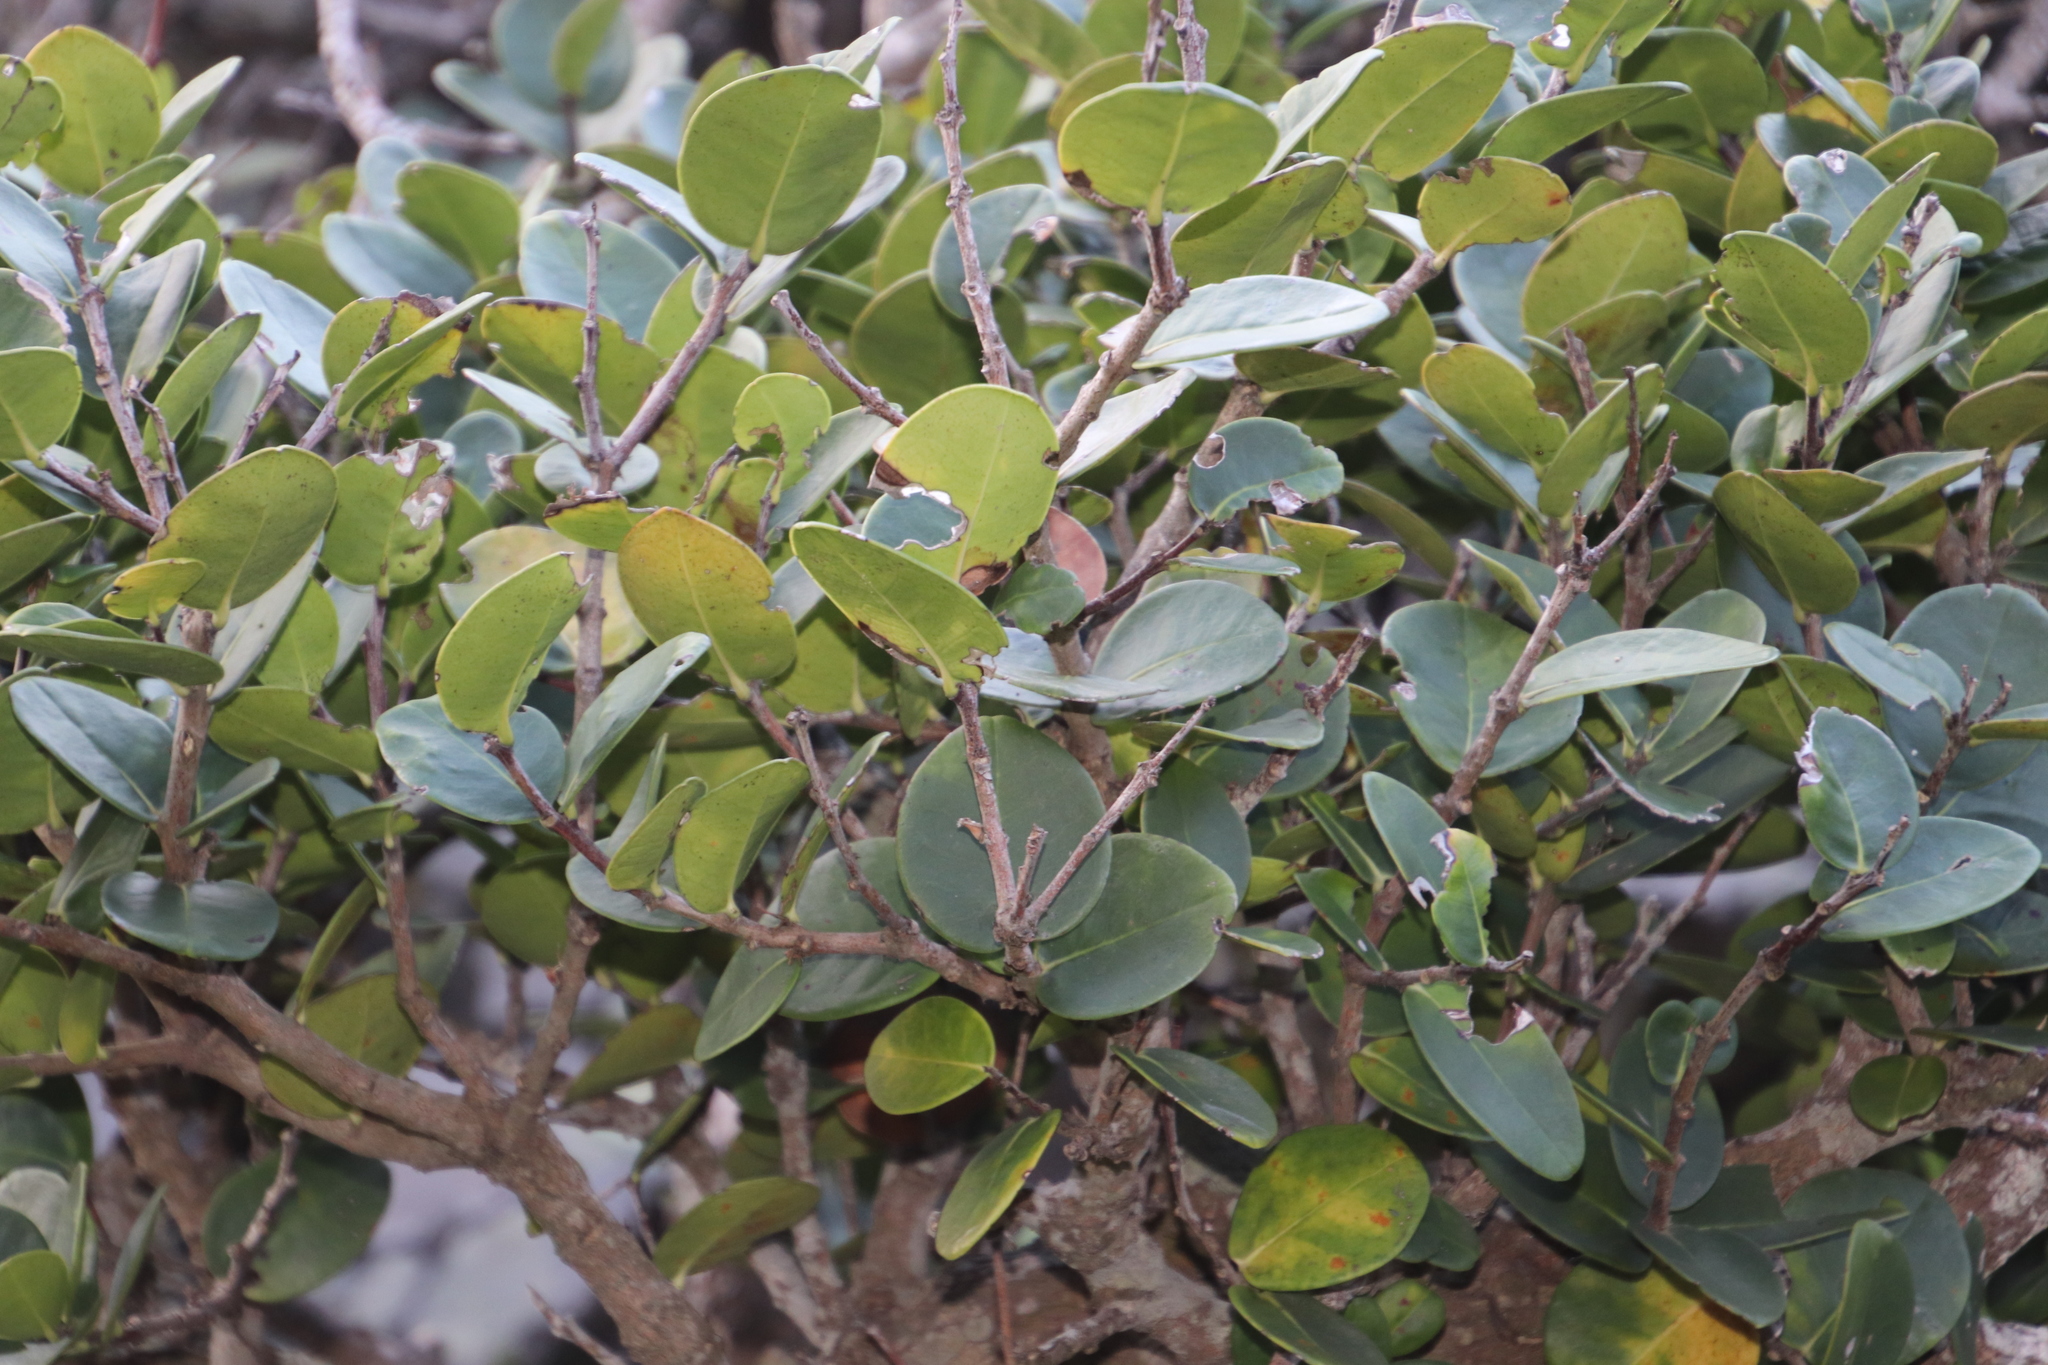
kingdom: Plantae
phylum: Tracheophyta
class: Magnoliopsida
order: Celastrales
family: Celastraceae
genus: Maurocenia
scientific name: Maurocenia frangula
